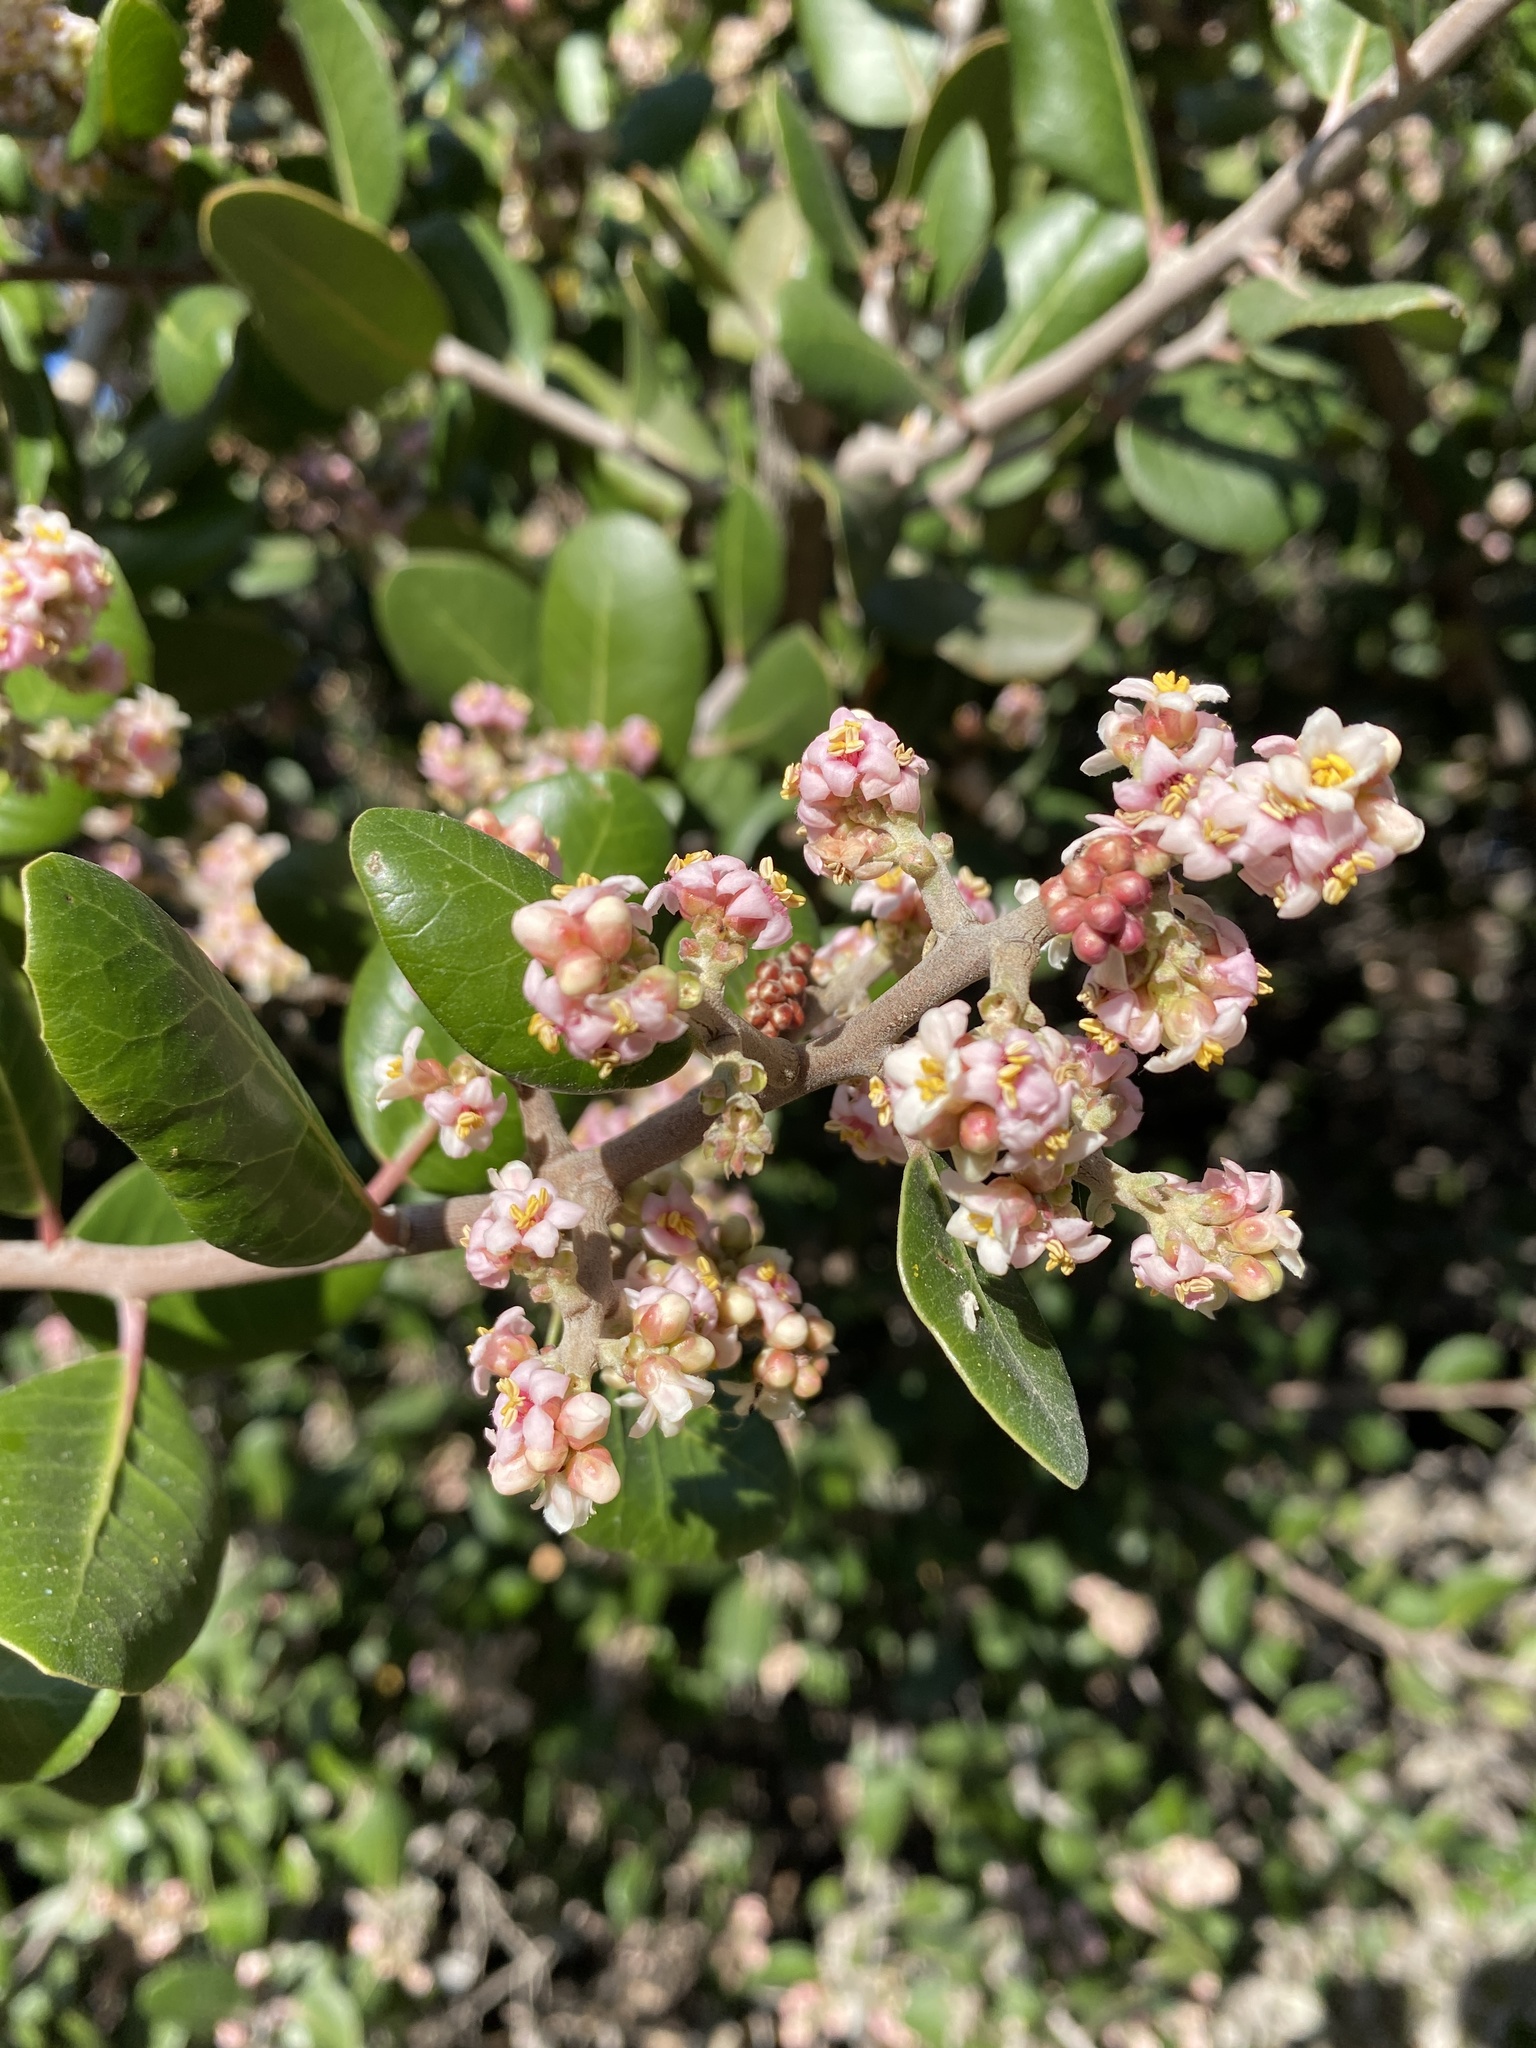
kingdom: Plantae
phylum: Tracheophyta
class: Magnoliopsida
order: Sapindales
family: Anacardiaceae
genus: Rhus
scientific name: Rhus integrifolia
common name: Lemonade sumac
